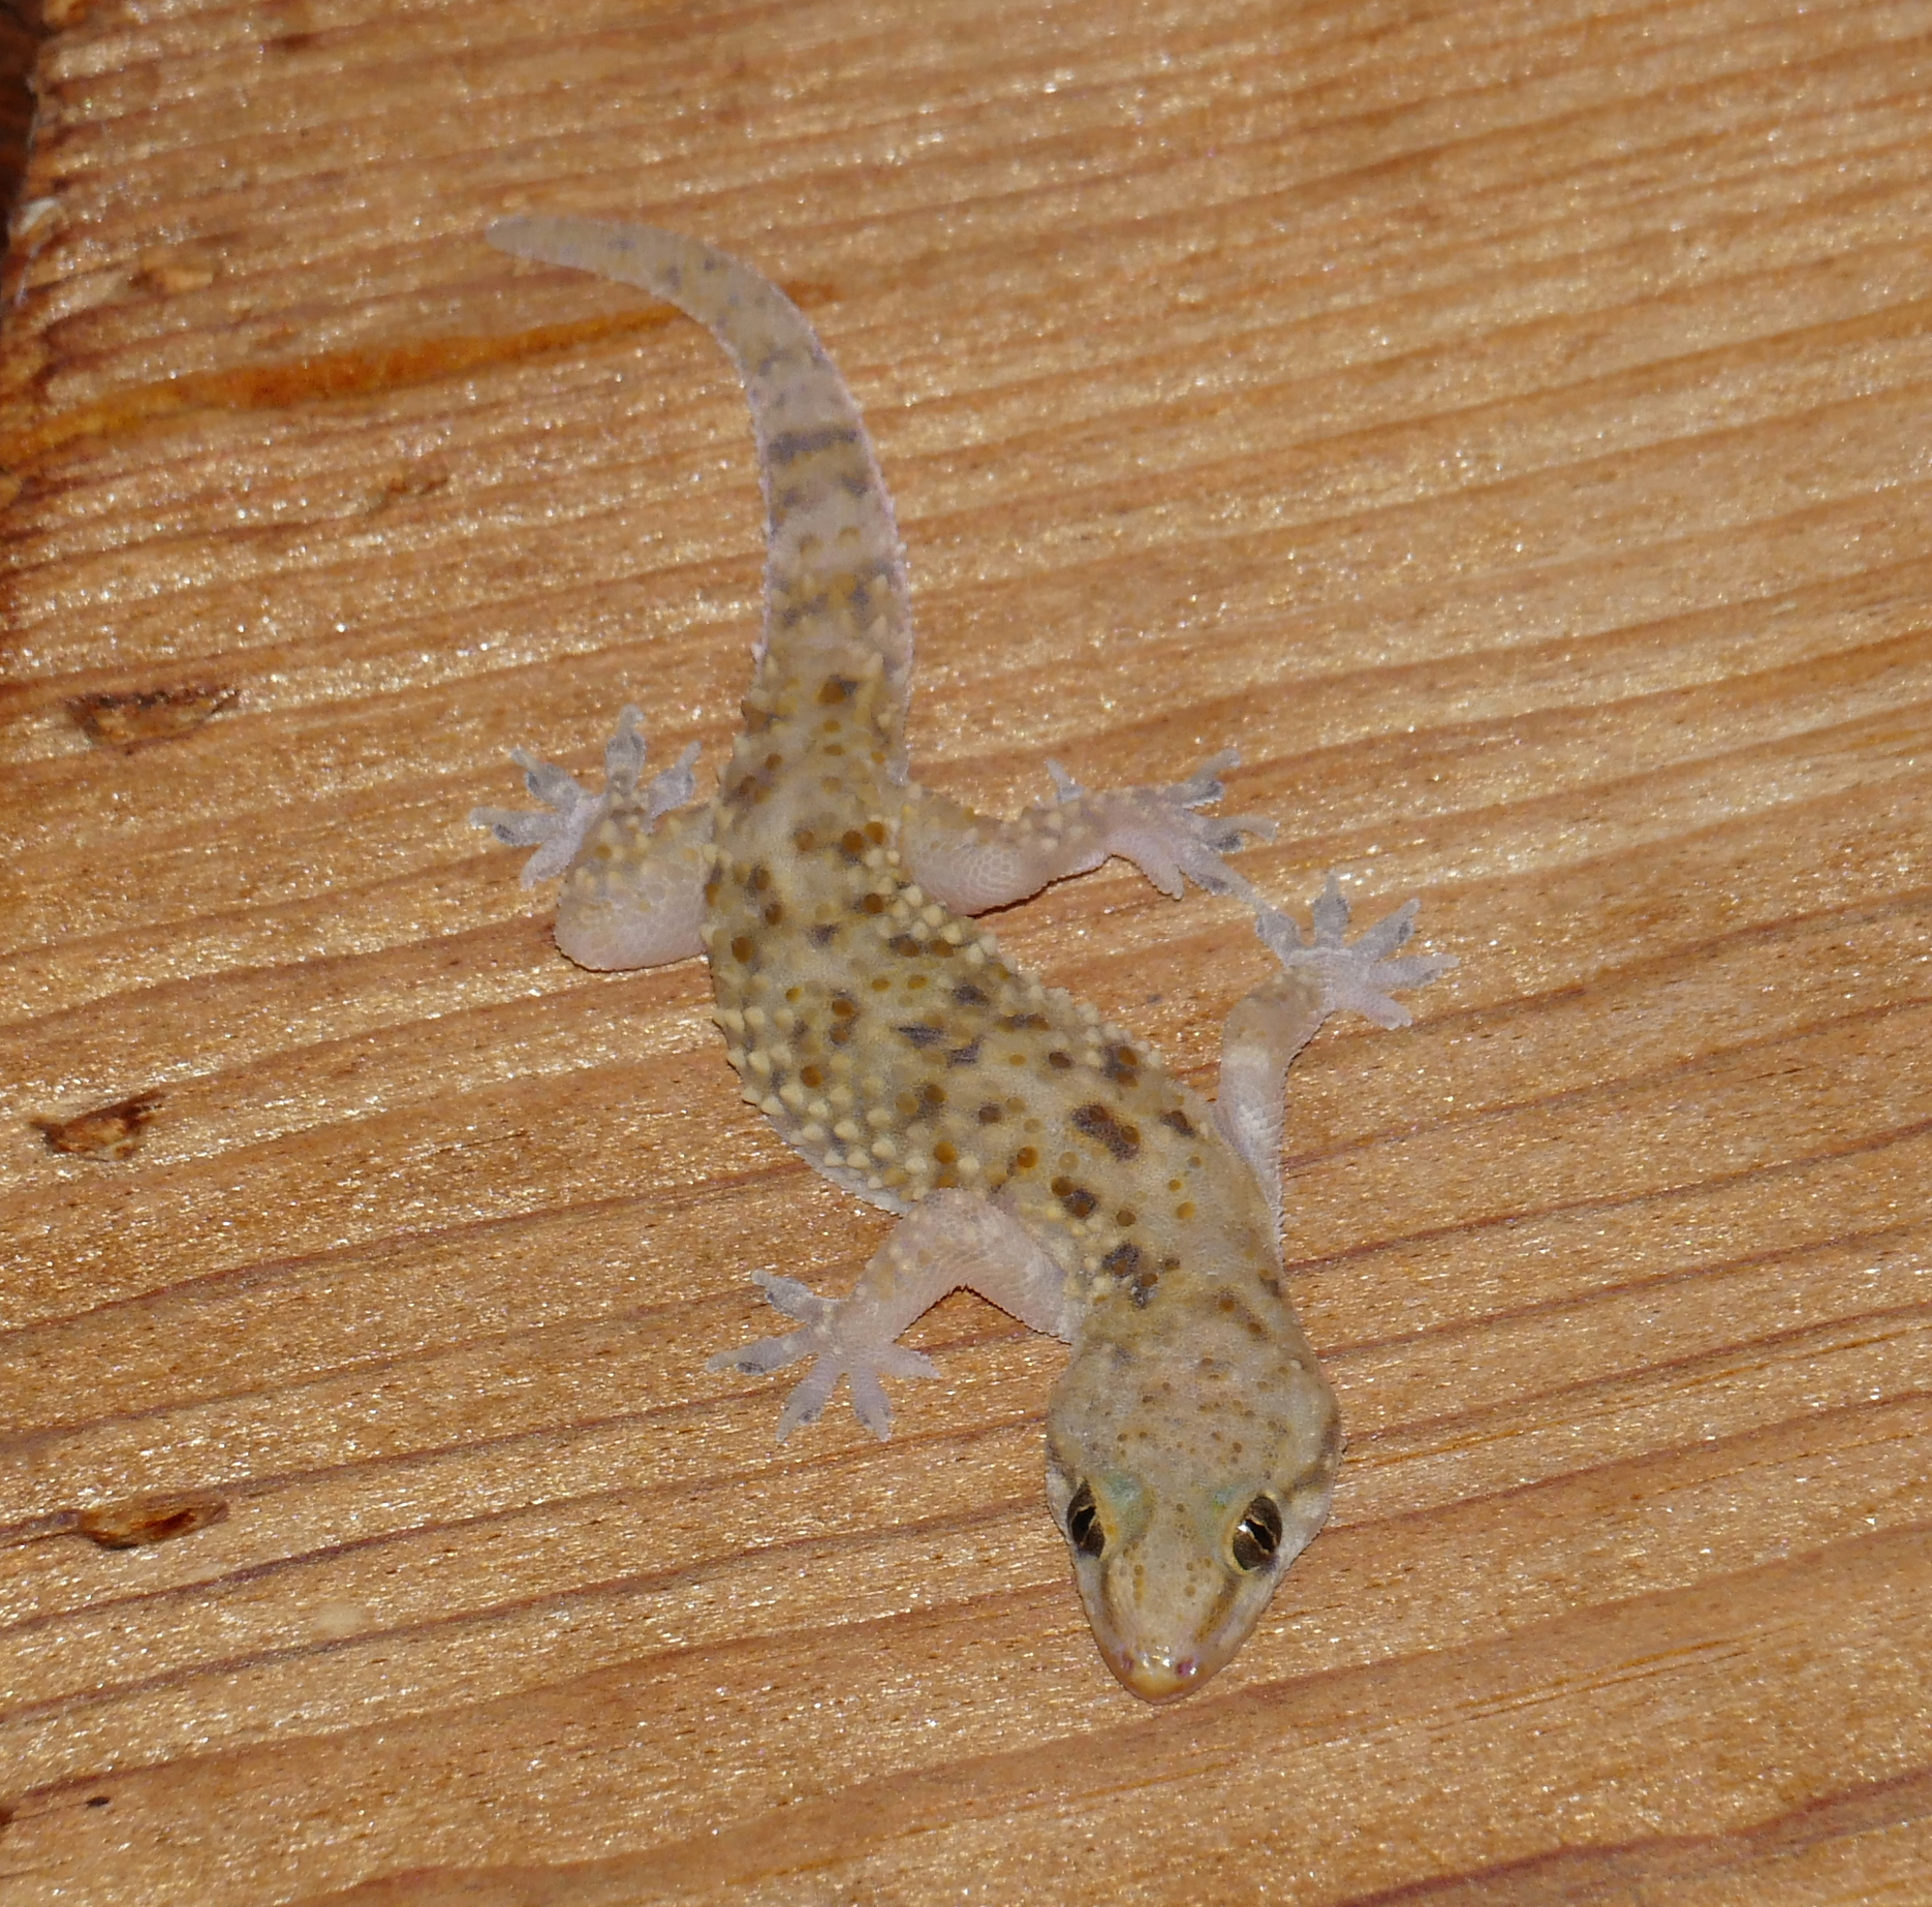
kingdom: Animalia
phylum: Chordata
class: Squamata
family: Gekkonidae
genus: Hemidactylus
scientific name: Hemidactylus turcicus
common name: Turkish gecko
